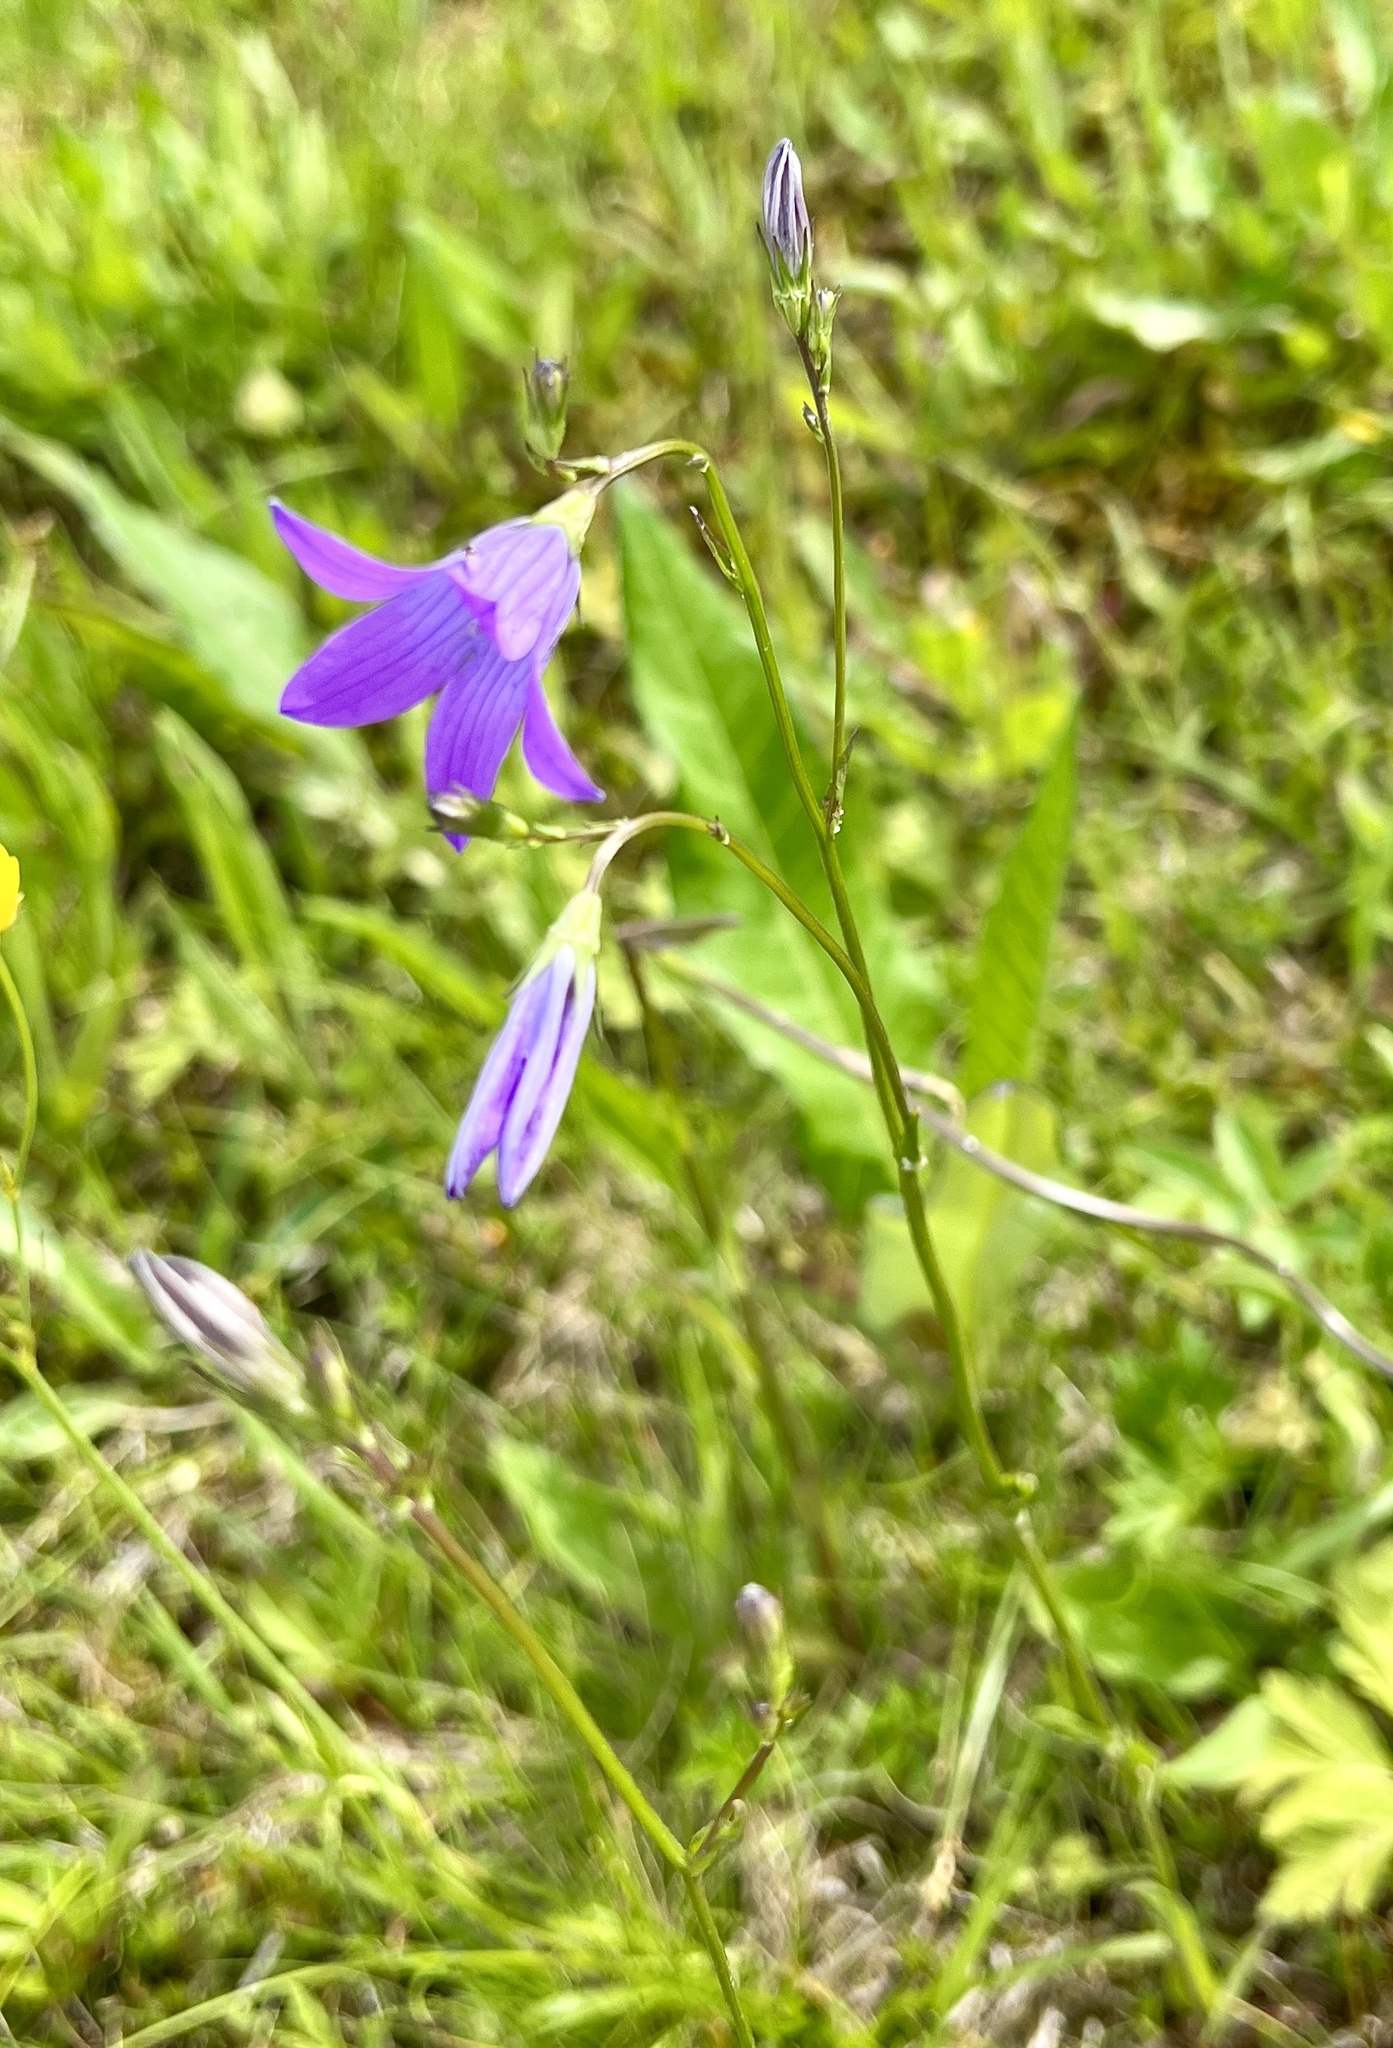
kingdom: Plantae
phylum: Tracheophyta
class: Magnoliopsida
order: Asterales
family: Campanulaceae
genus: Campanula
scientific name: Campanula patula
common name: Spreading bellflower
